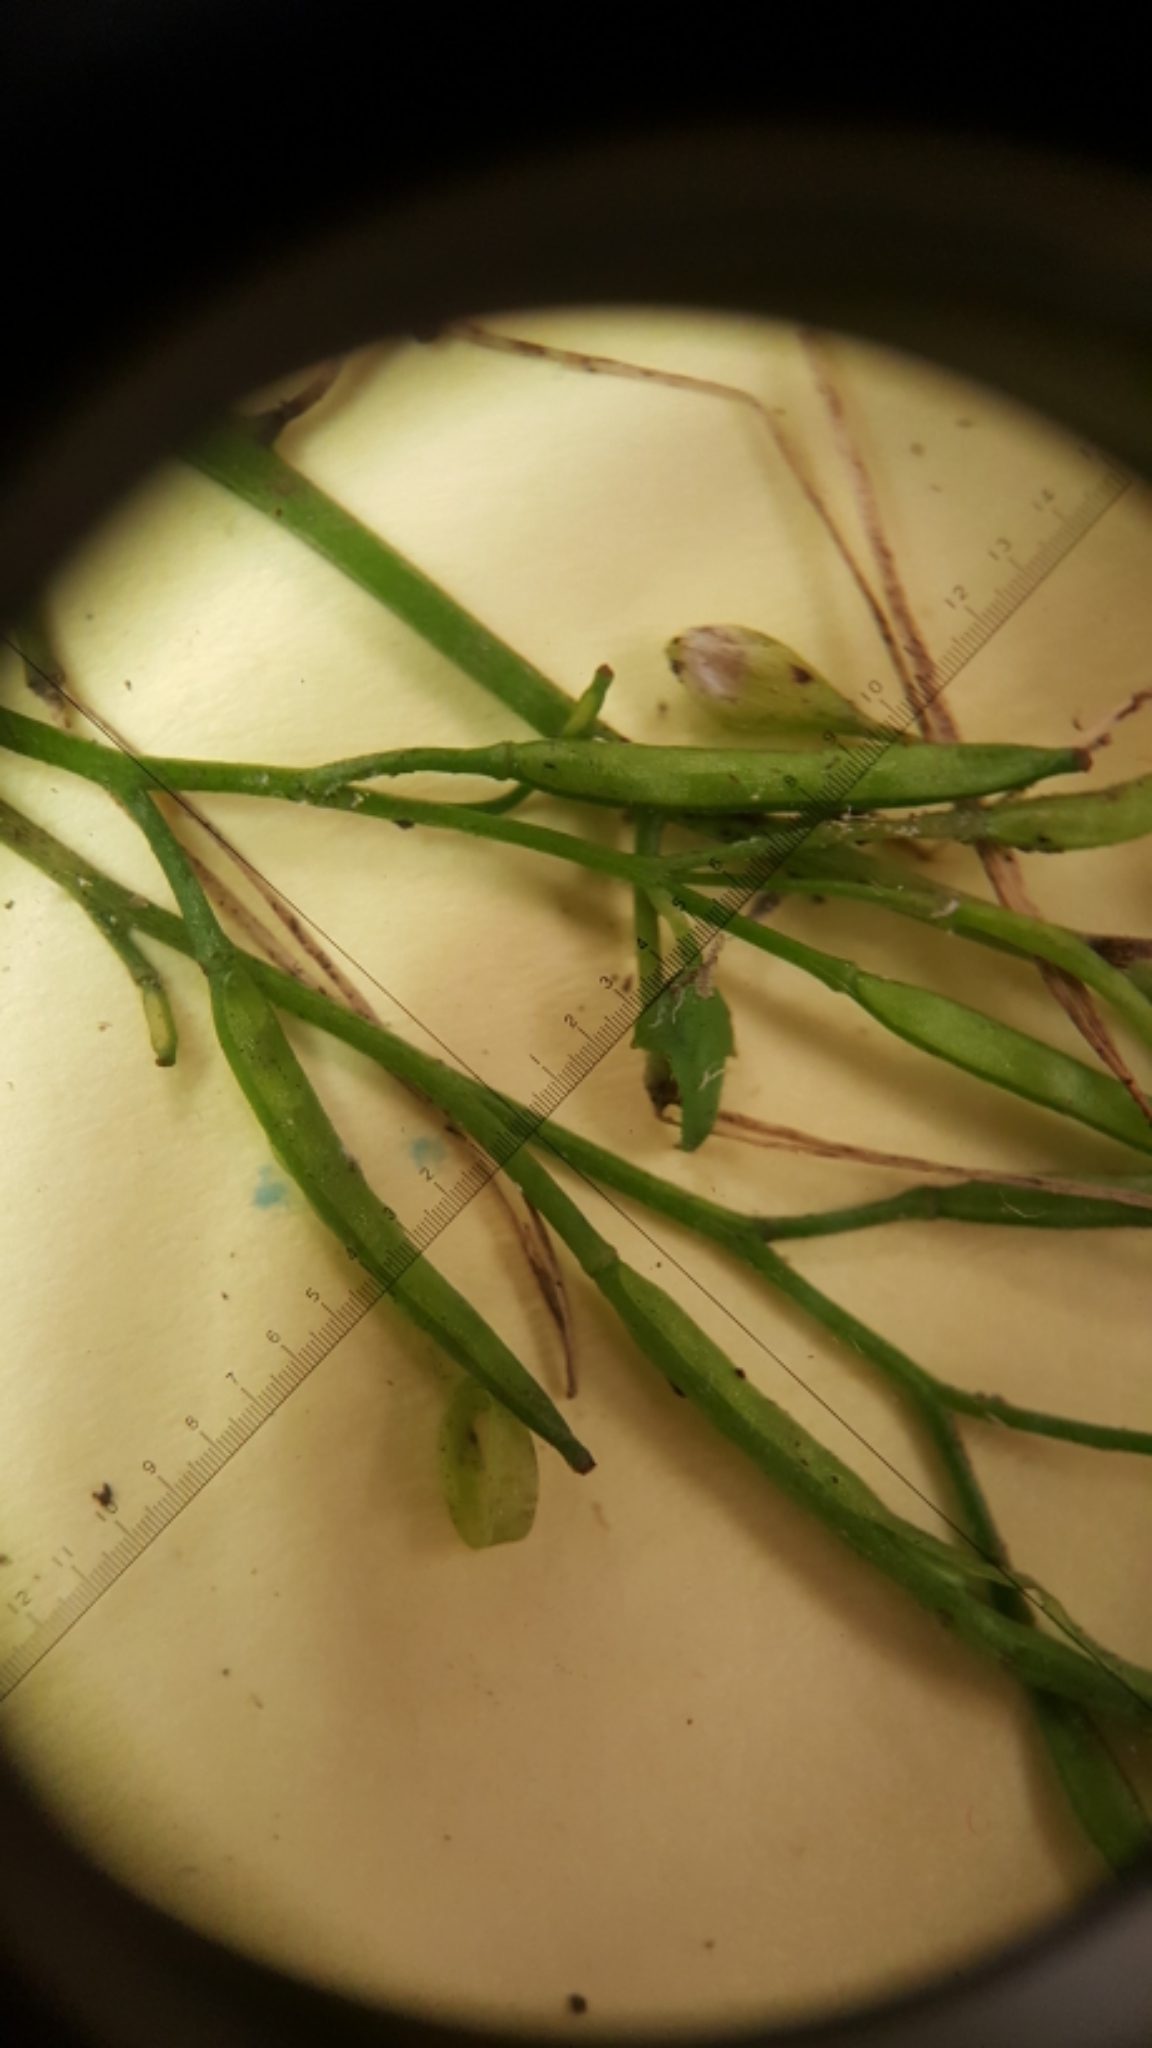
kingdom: Plantae
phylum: Tracheophyta
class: Magnoliopsida
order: Brassicales
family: Brassicaceae
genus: Nasturtium
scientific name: Nasturtium microphyllum
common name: Onerow yellowcress
